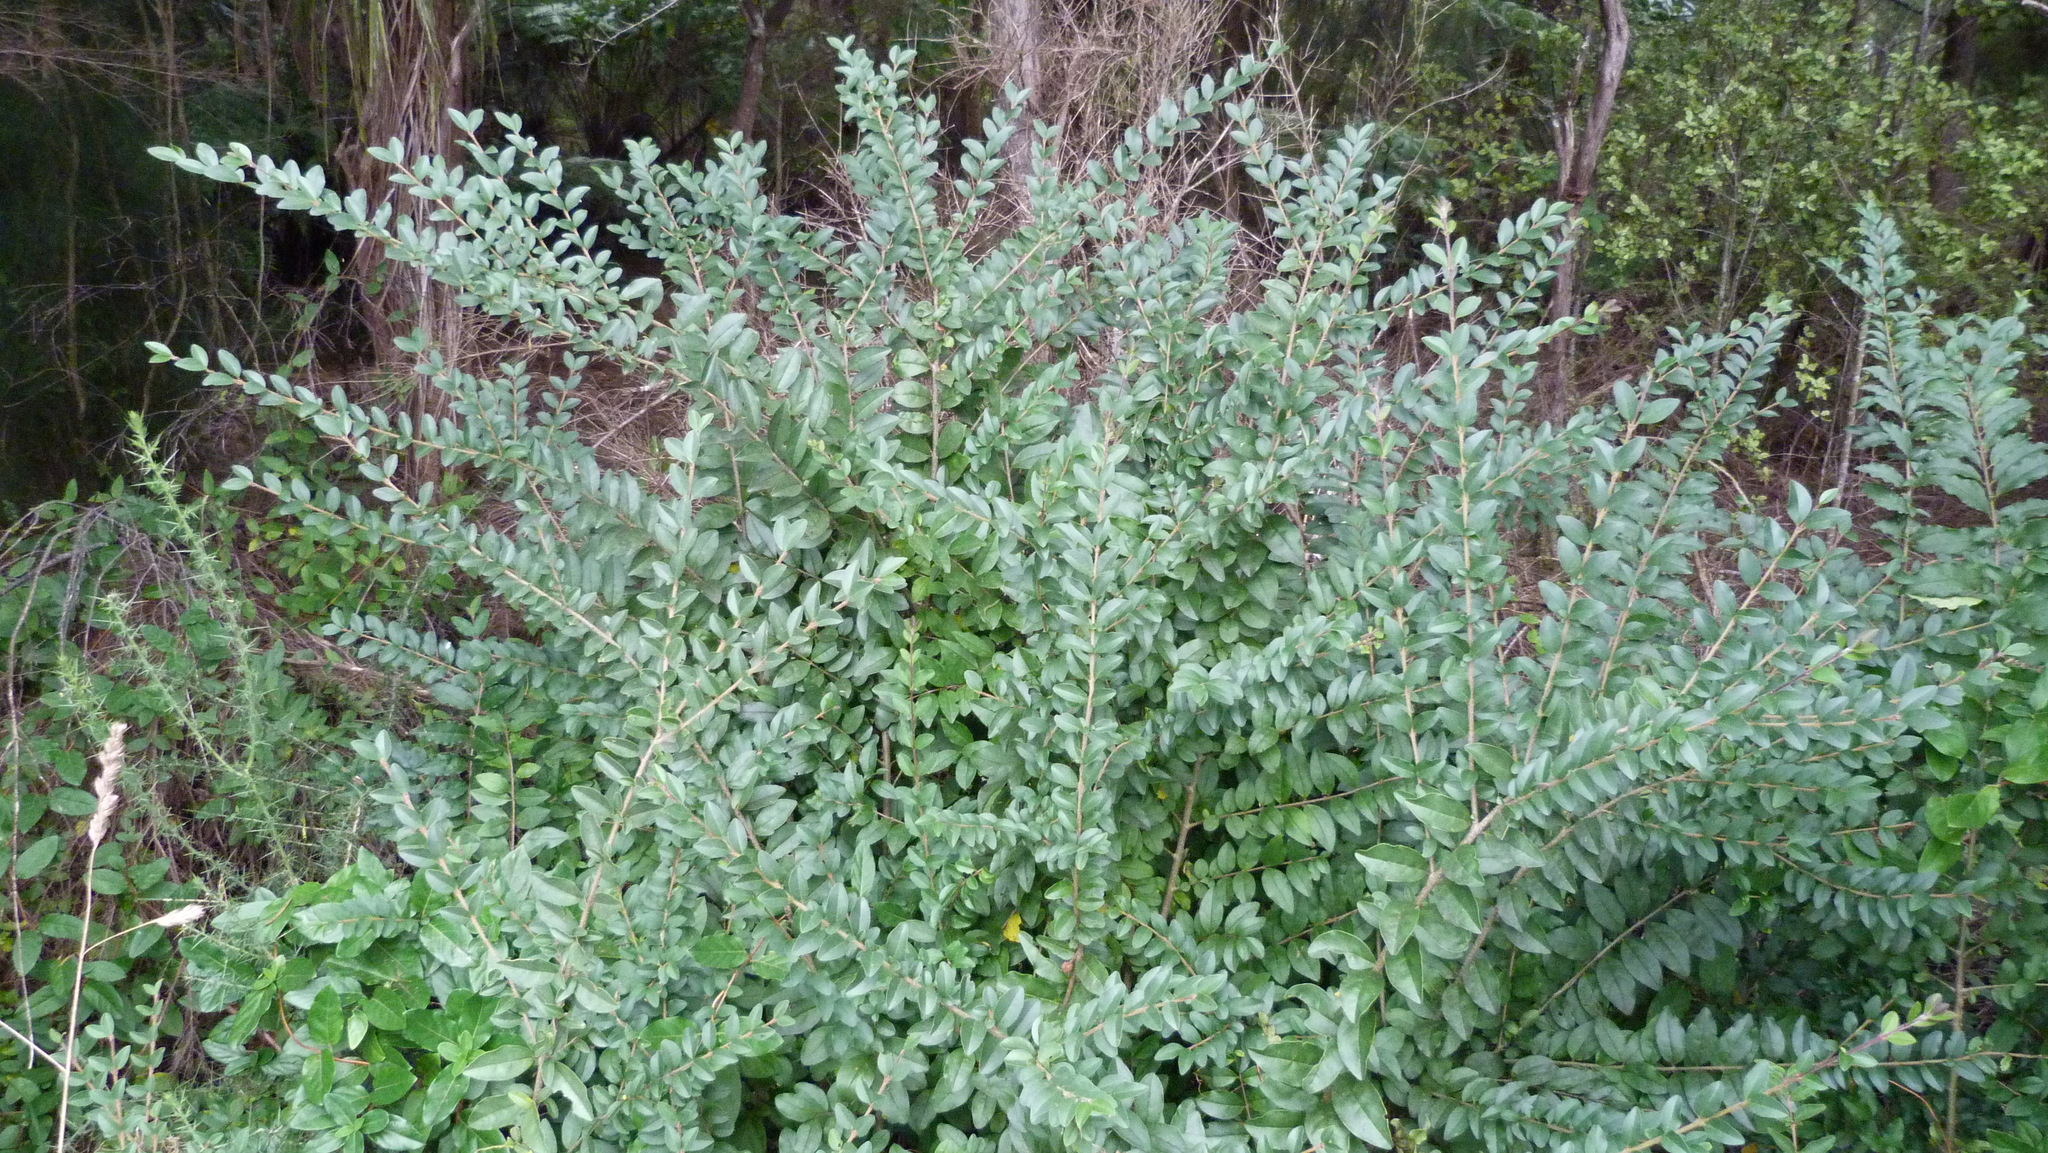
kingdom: Plantae
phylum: Tracheophyta
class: Magnoliopsida
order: Lamiales
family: Oleaceae
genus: Ligustrum
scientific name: Ligustrum sinense
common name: Chinese privet
